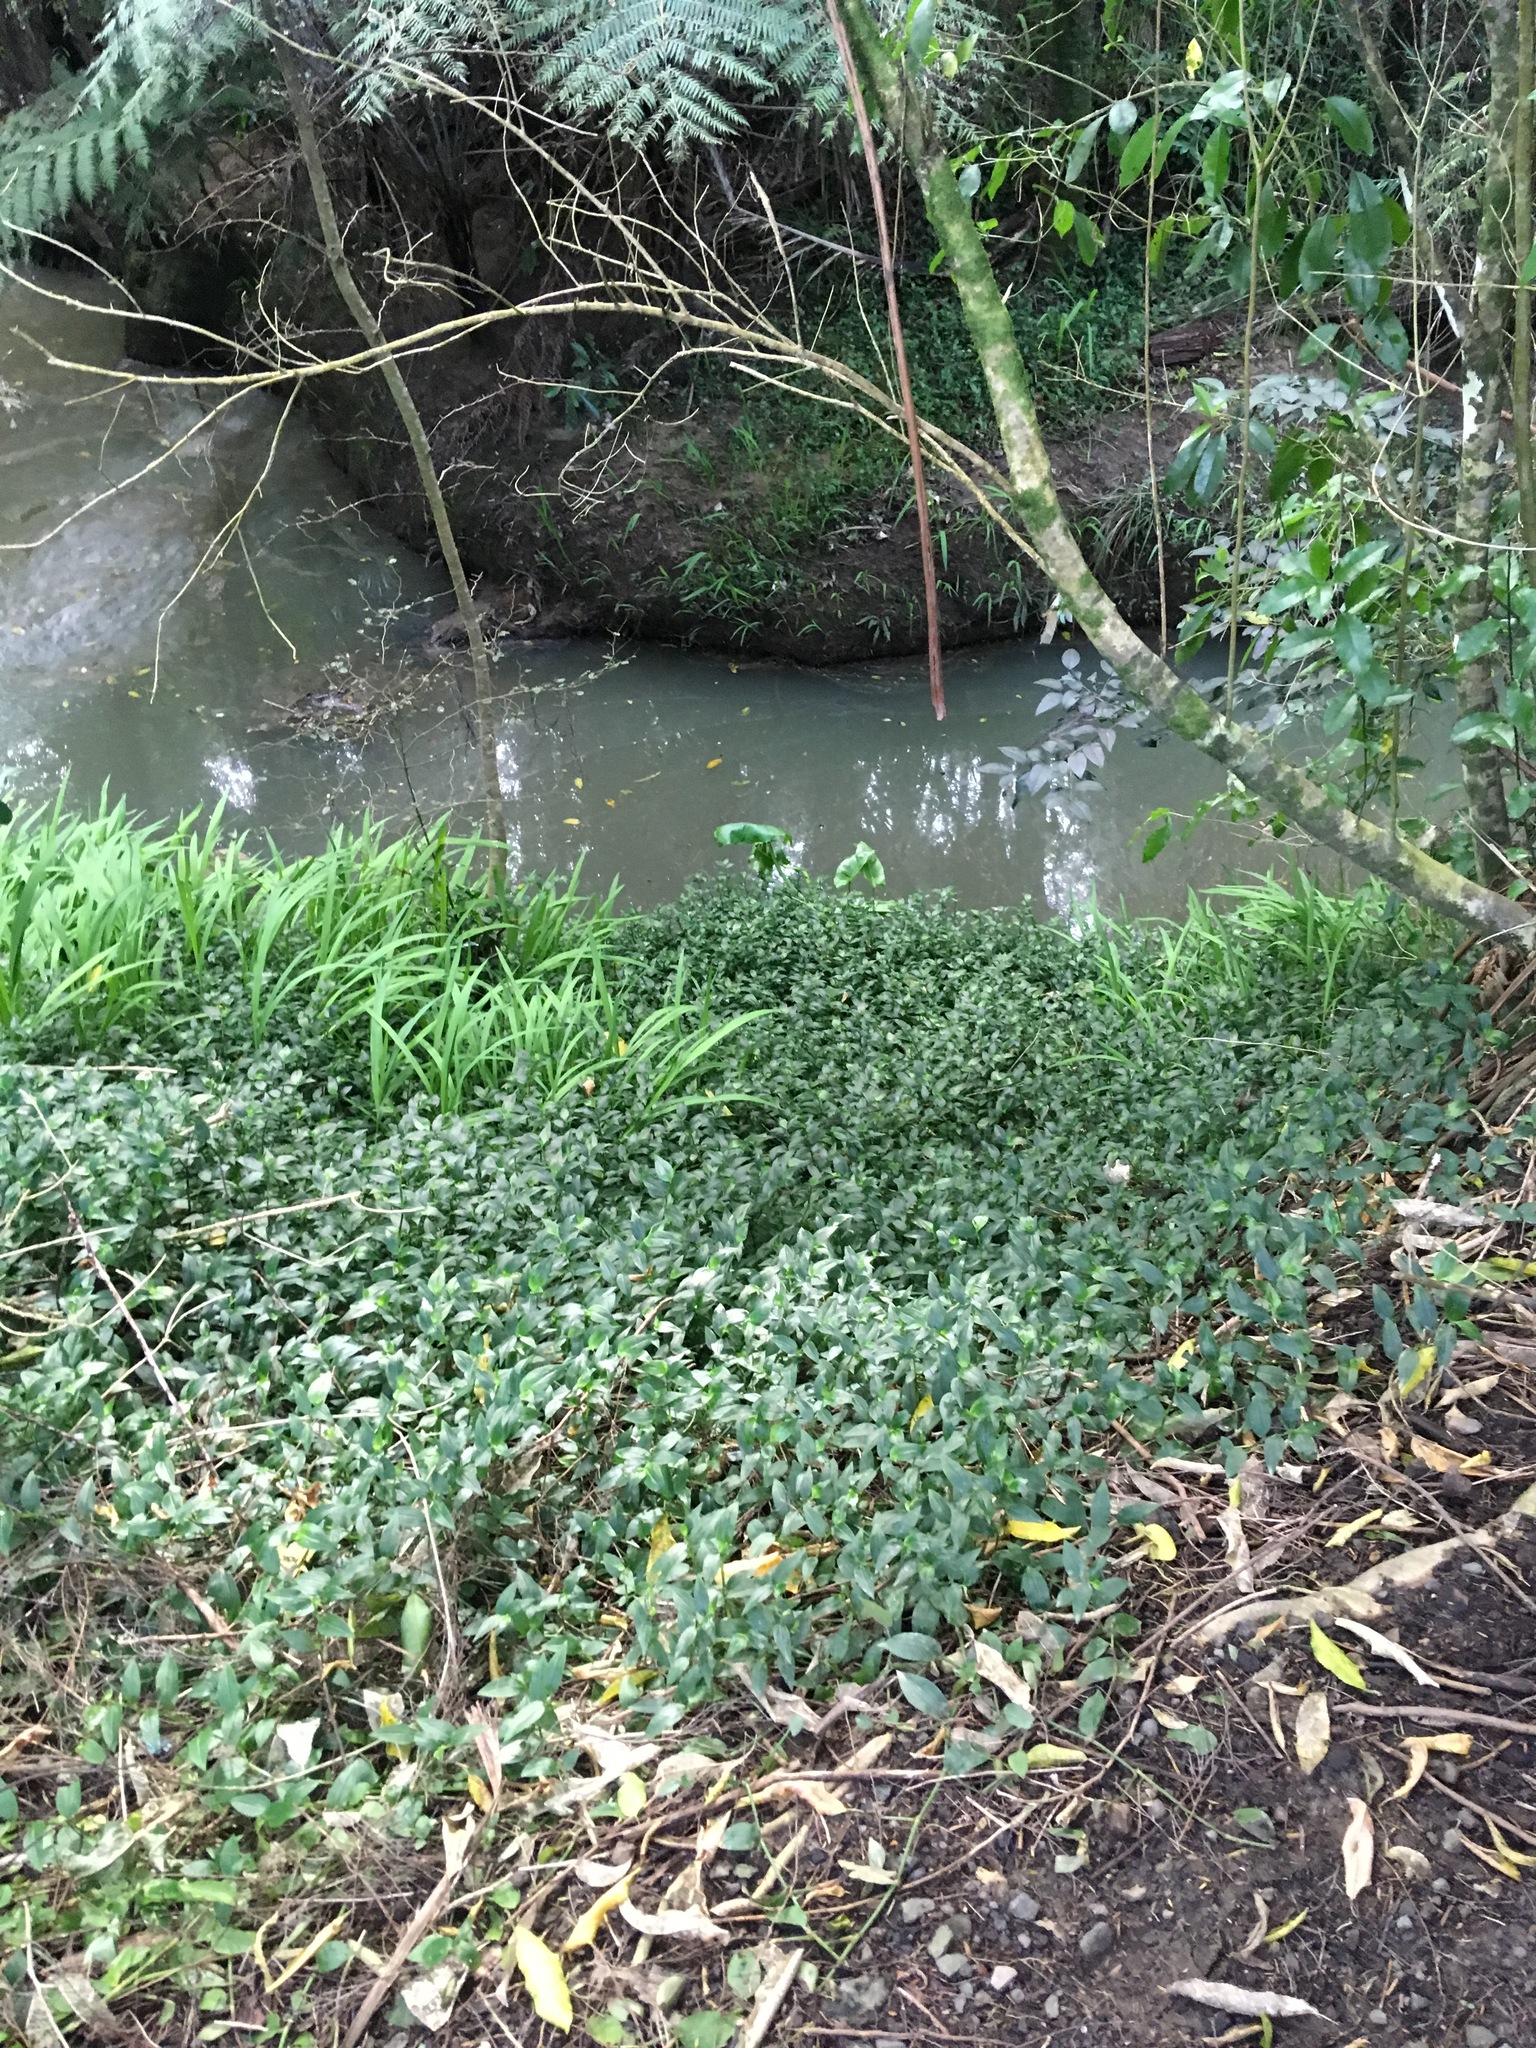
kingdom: Plantae
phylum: Tracheophyta
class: Liliopsida
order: Commelinales
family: Commelinaceae
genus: Tradescantia
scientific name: Tradescantia fluminensis
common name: Wandering-jew
